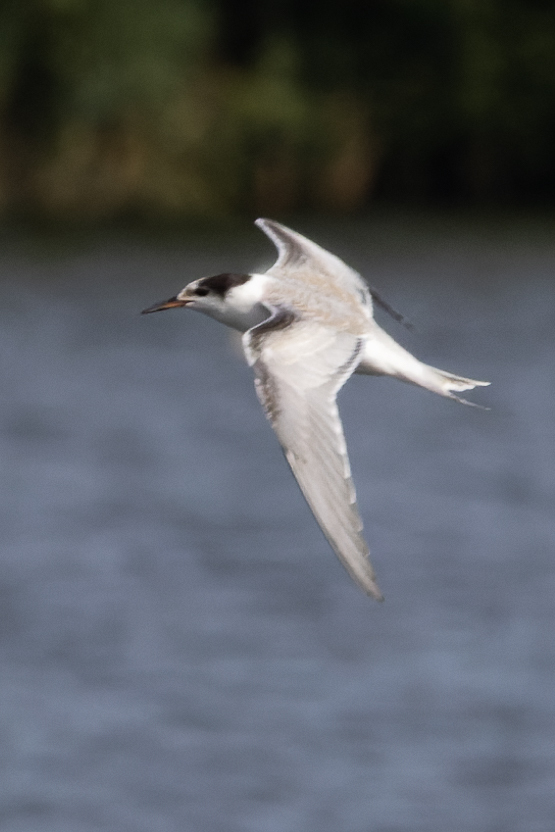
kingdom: Animalia
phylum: Chordata
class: Aves
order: Charadriiformes
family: Laridae
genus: Sterna
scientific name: Sterna hirundo
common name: Common tern
